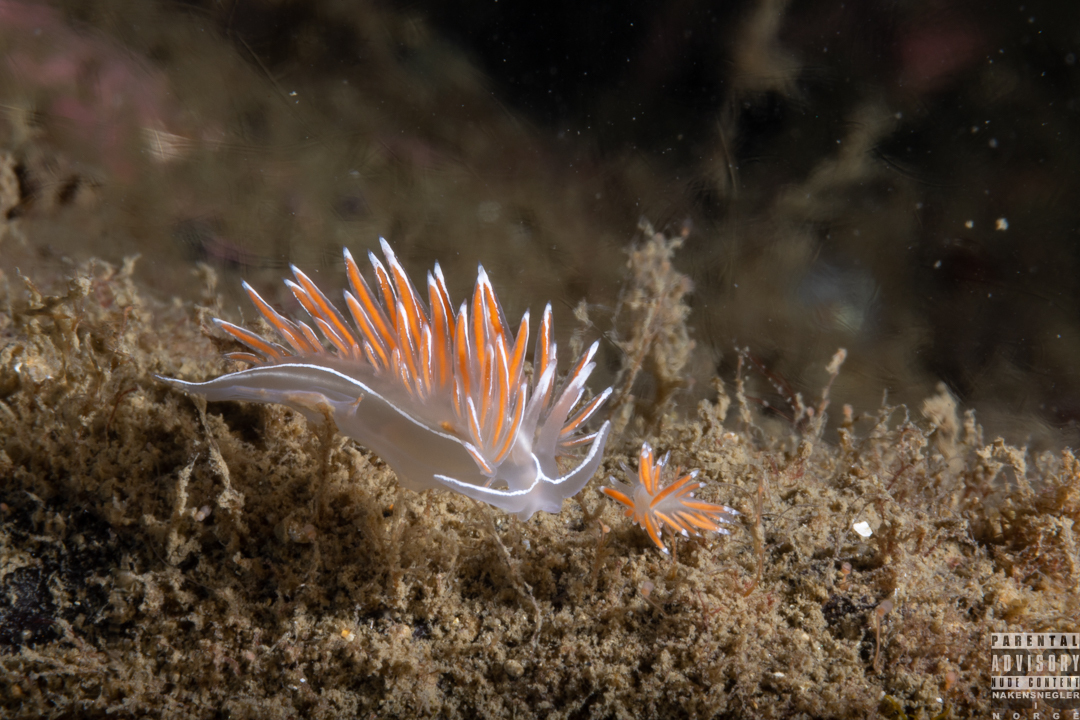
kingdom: Animalia
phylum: Mollusca
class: Gastropoda
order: Nudibranchia
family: Coryphellidae
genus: Coryphella
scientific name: Coryphella lineata
